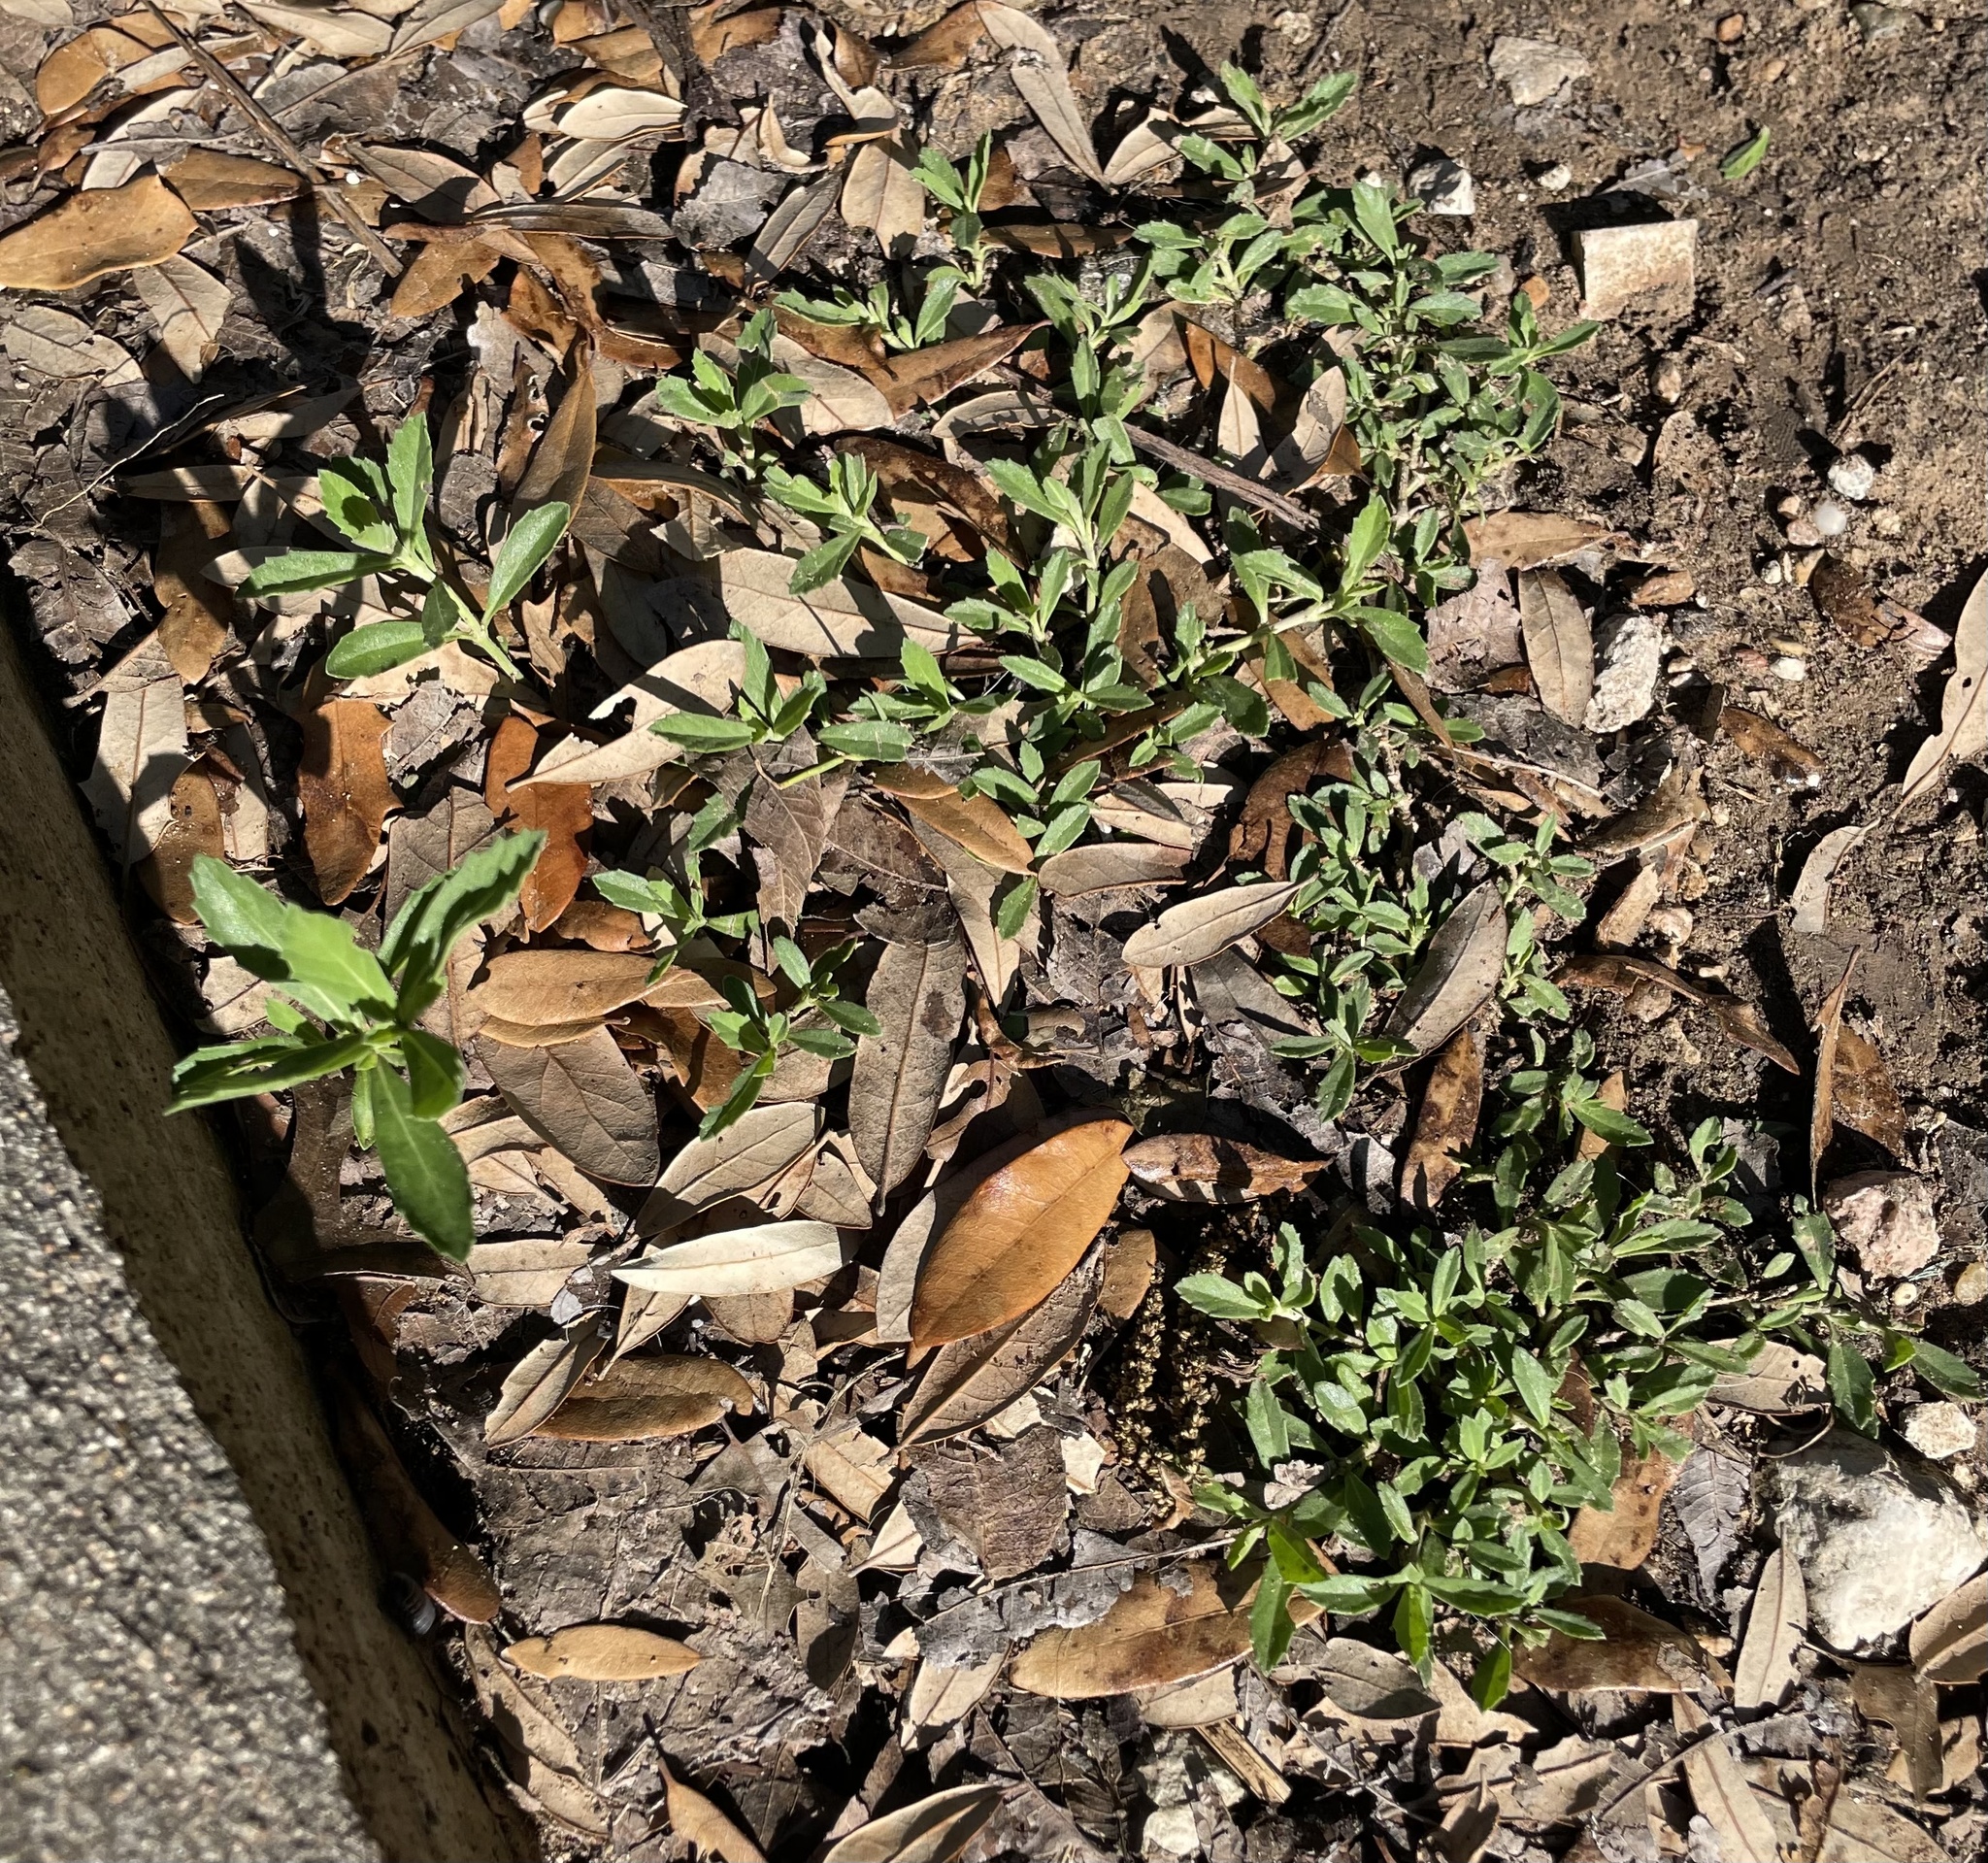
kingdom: Plantae
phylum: Tracheophyta
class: Magnoliopsida
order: Lamiales
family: Verbenaceae
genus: Phyla
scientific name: Phyla nodiflora
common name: Frogfruit
